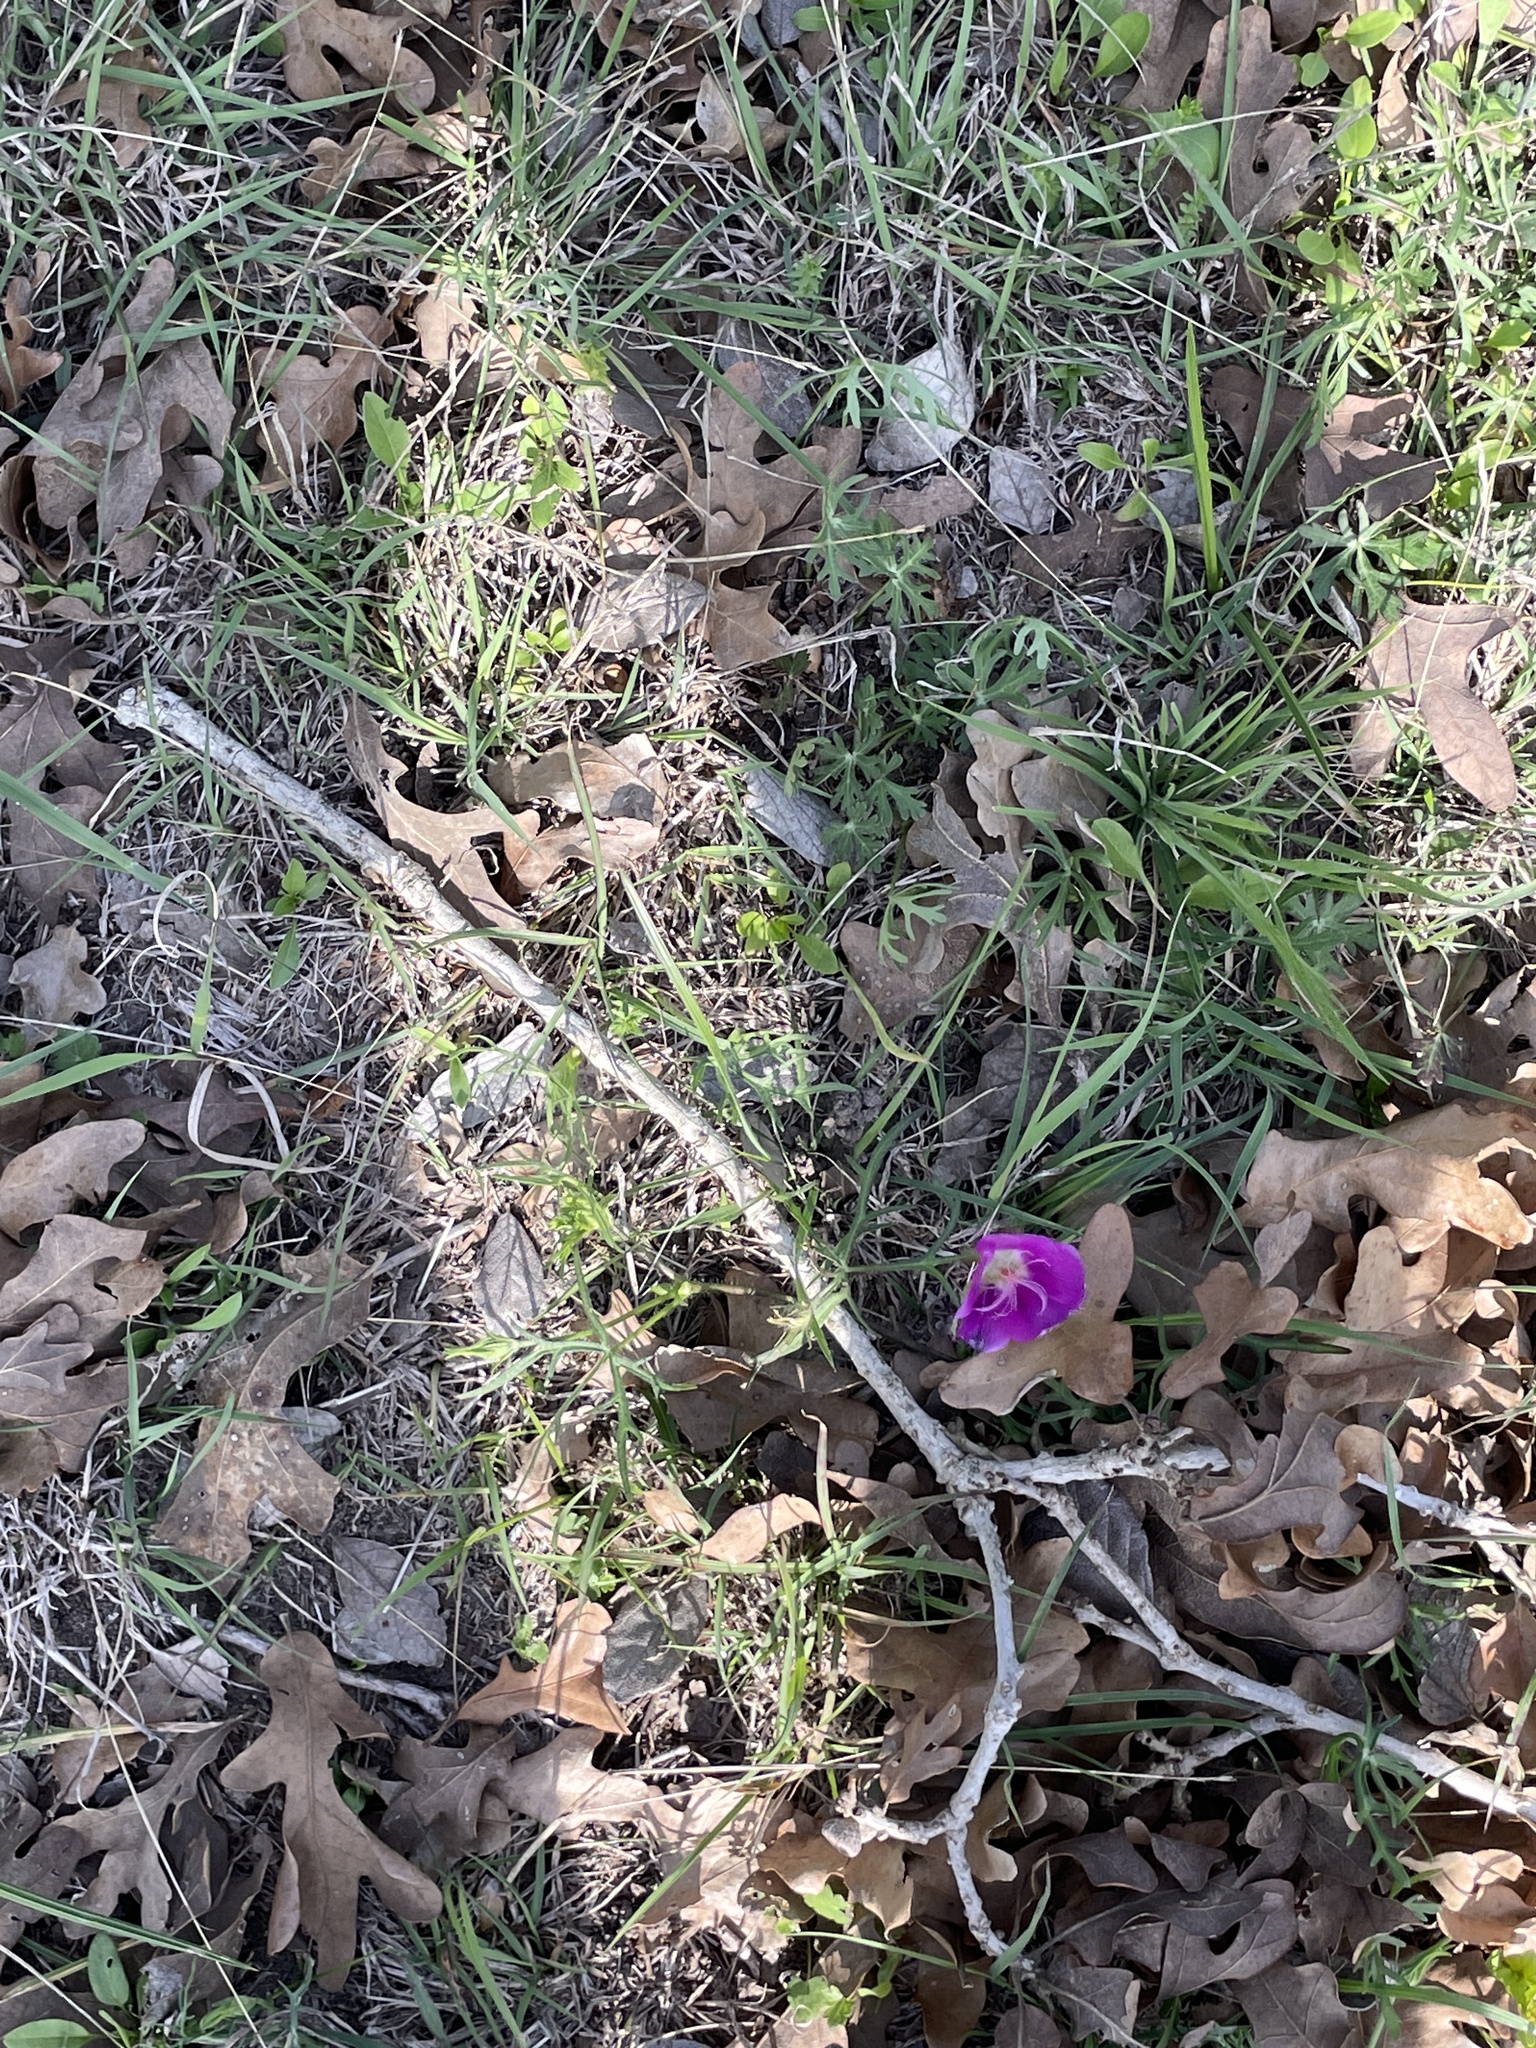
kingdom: Plantae
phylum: Tracheophyta
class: Magnoliopsida
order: Malvales
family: Malvaceae
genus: Callirhoe
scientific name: Callirhoe involucrata
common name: Purple poppy-mallow
